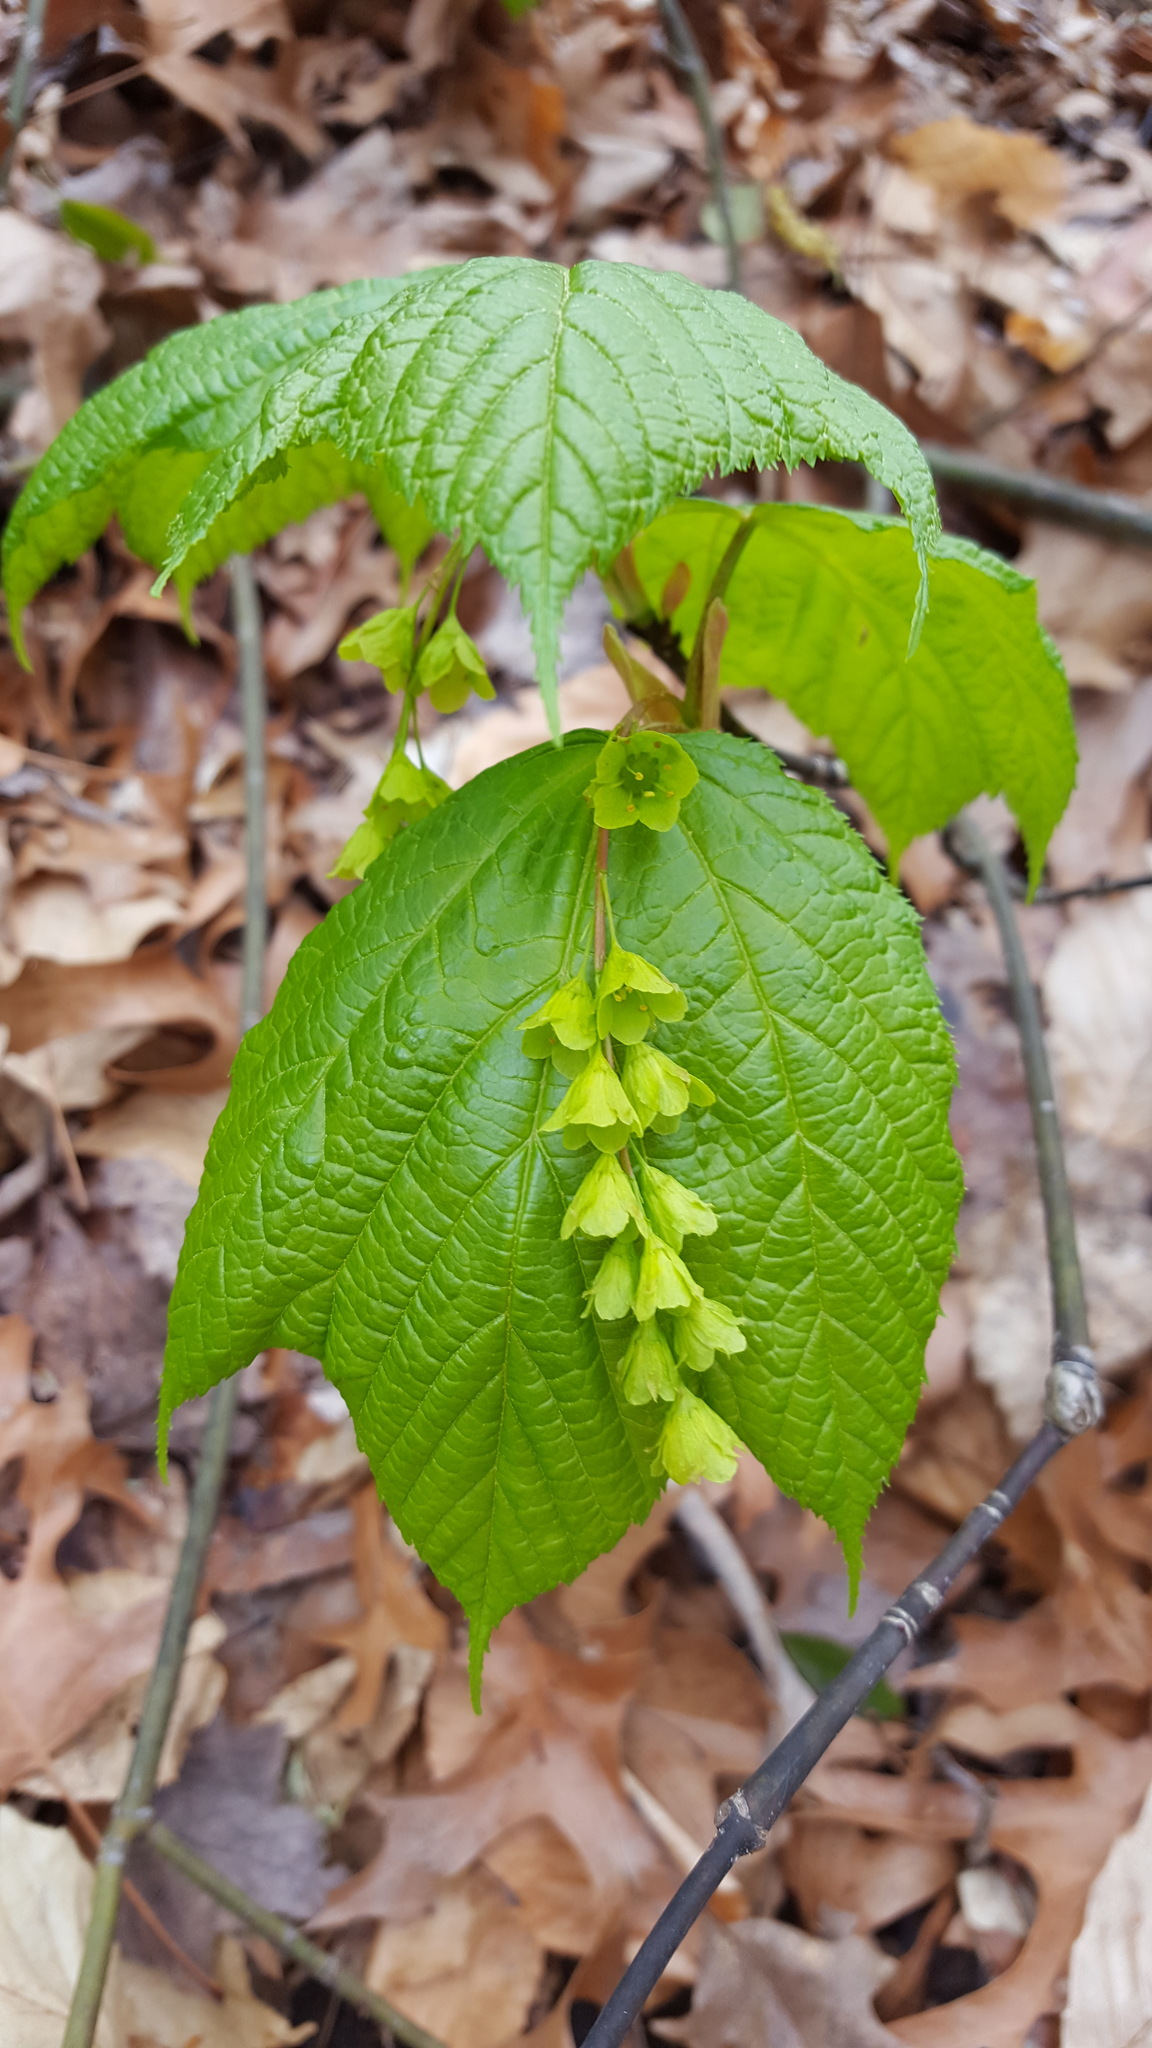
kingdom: Plantae
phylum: Tracheophyta
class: Magnoliopsida
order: Sapindales
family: Sapindaceae
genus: Acer
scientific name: Acer pensylvanicum
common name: Moosewood
